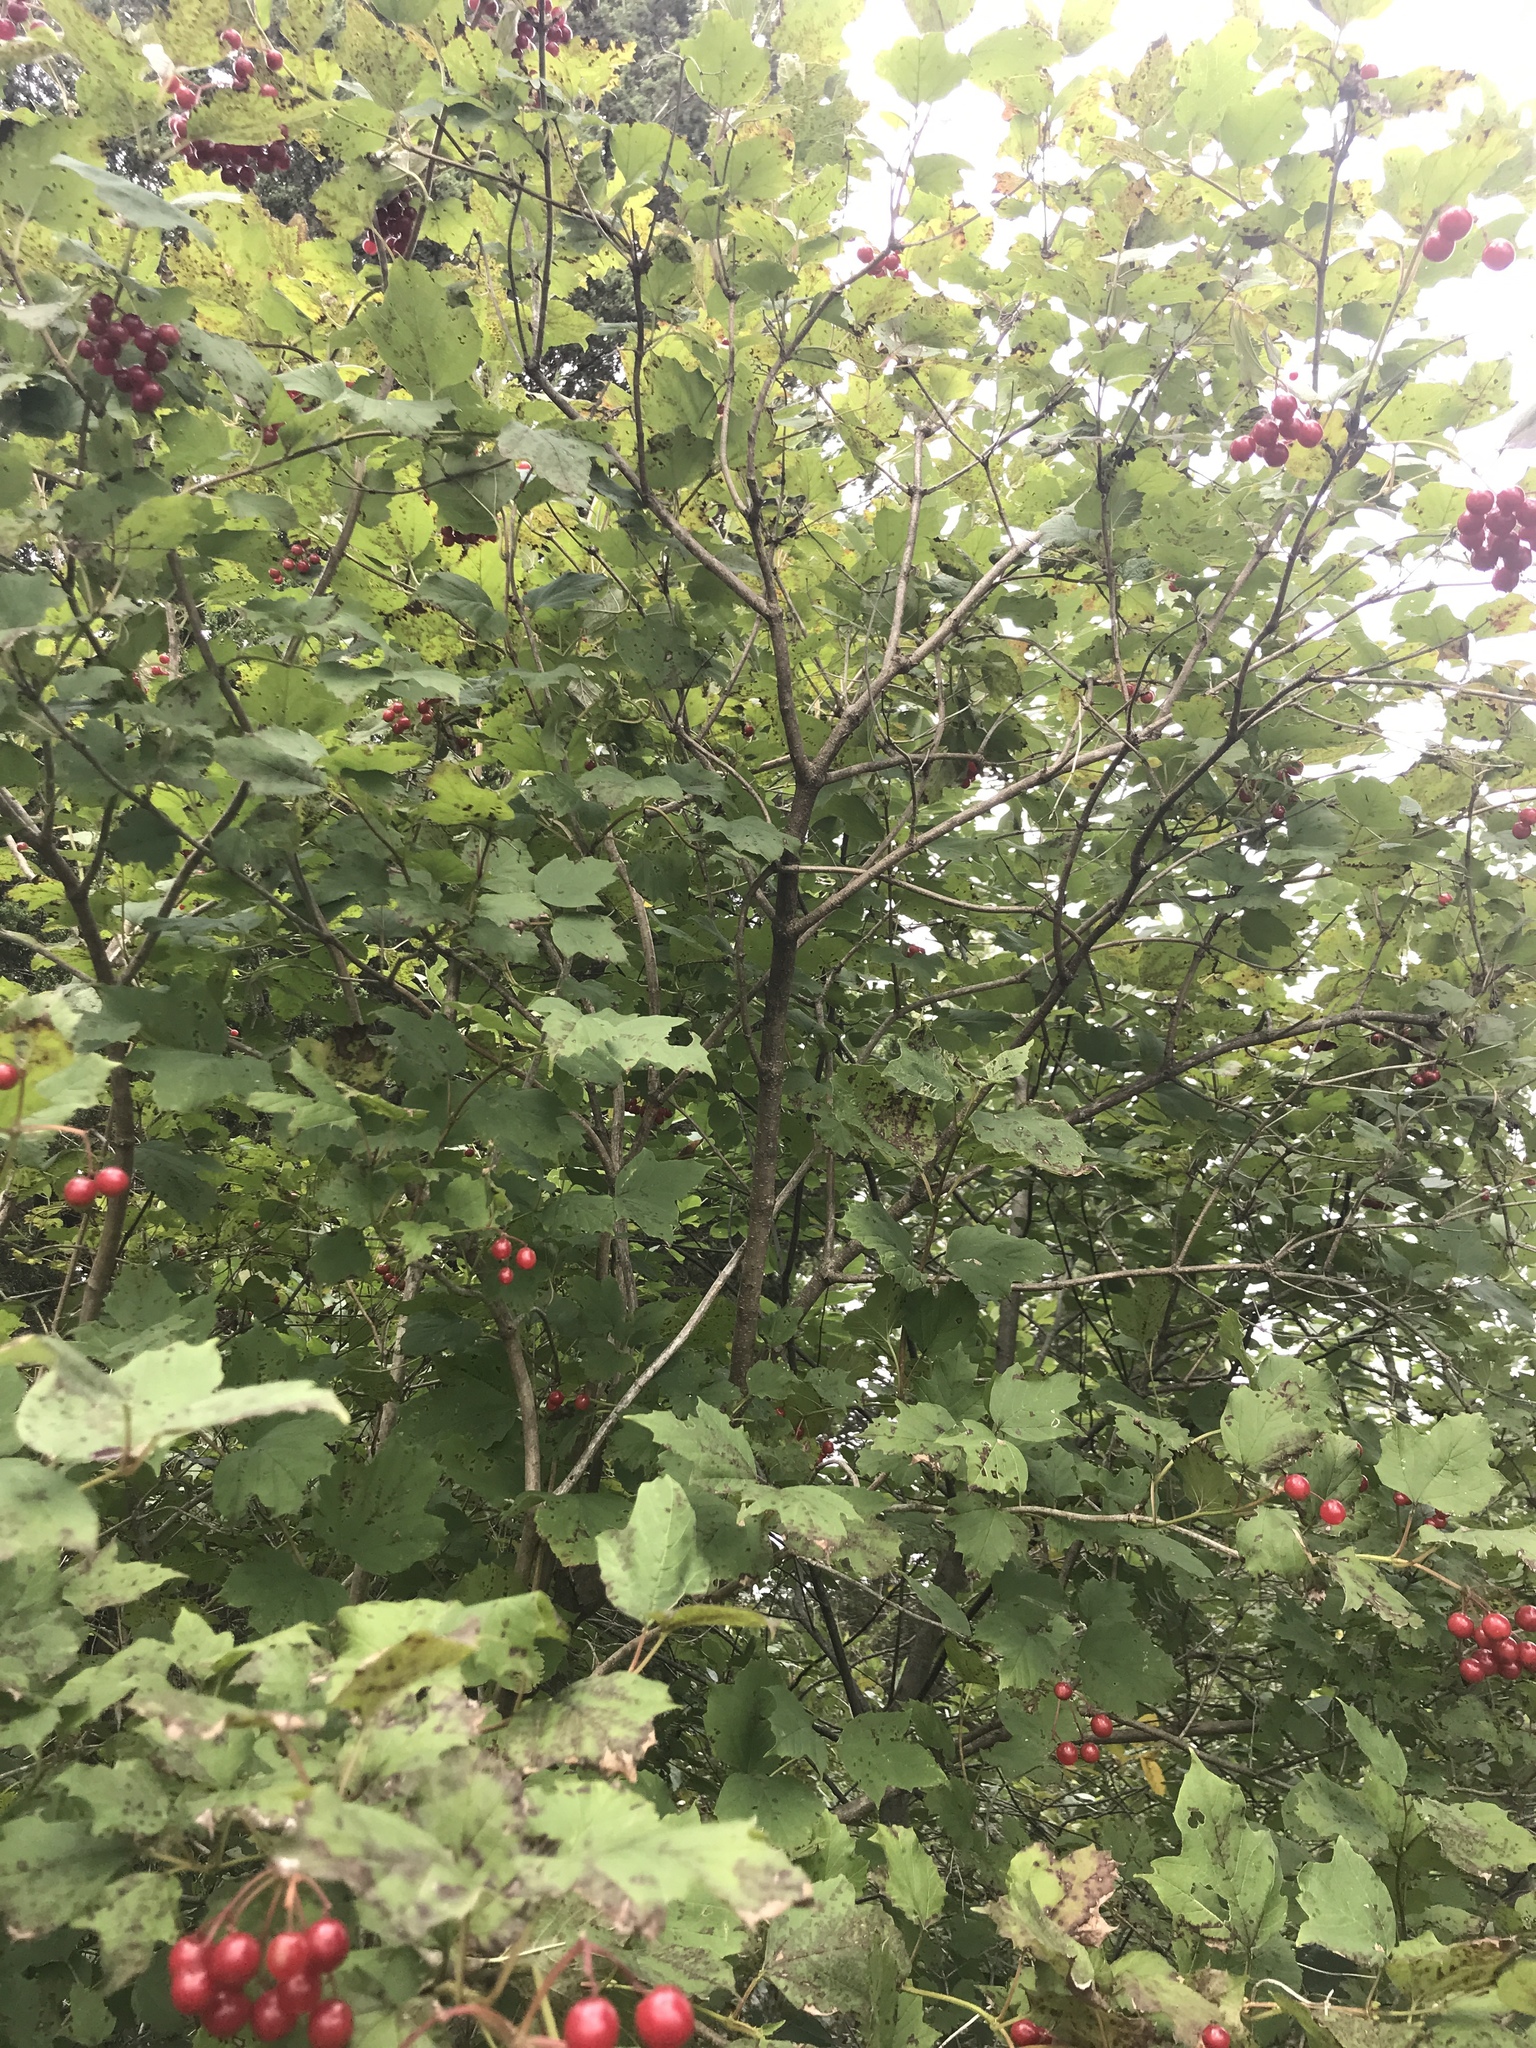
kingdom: Plantae
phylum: Tracheophyta
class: Magnoliopsida
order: Dipsacales
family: Viburnaceae
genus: Viburnum
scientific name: Viburnum opulus
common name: Guelder-rose
